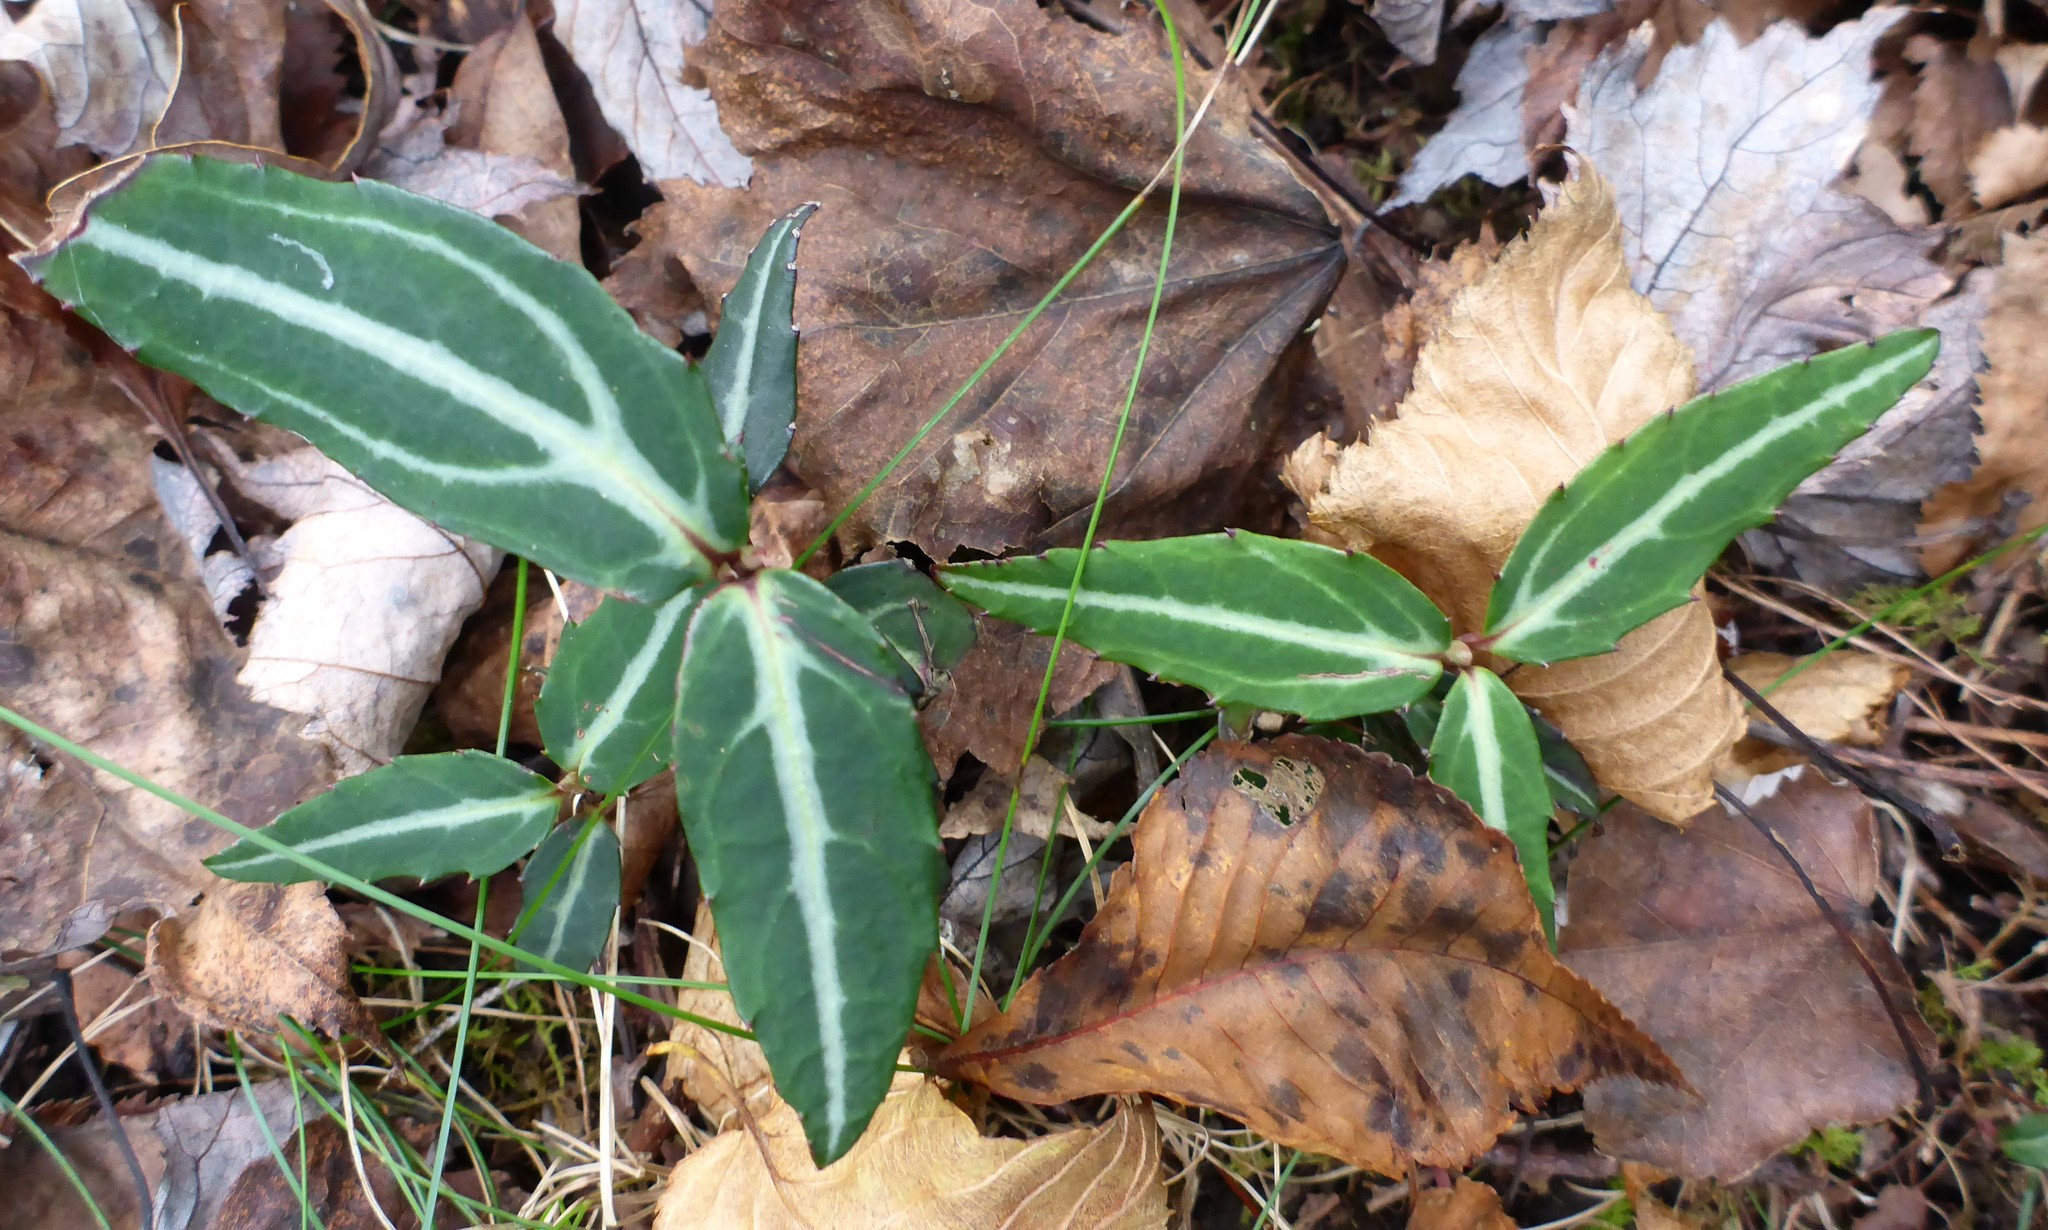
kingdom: Plantae
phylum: Tracheophyta
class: Magnoliopsida
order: Ericales
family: Ericaceae
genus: Chimaphila
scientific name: Chimaphila maculata
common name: Spotted pipsissewa
